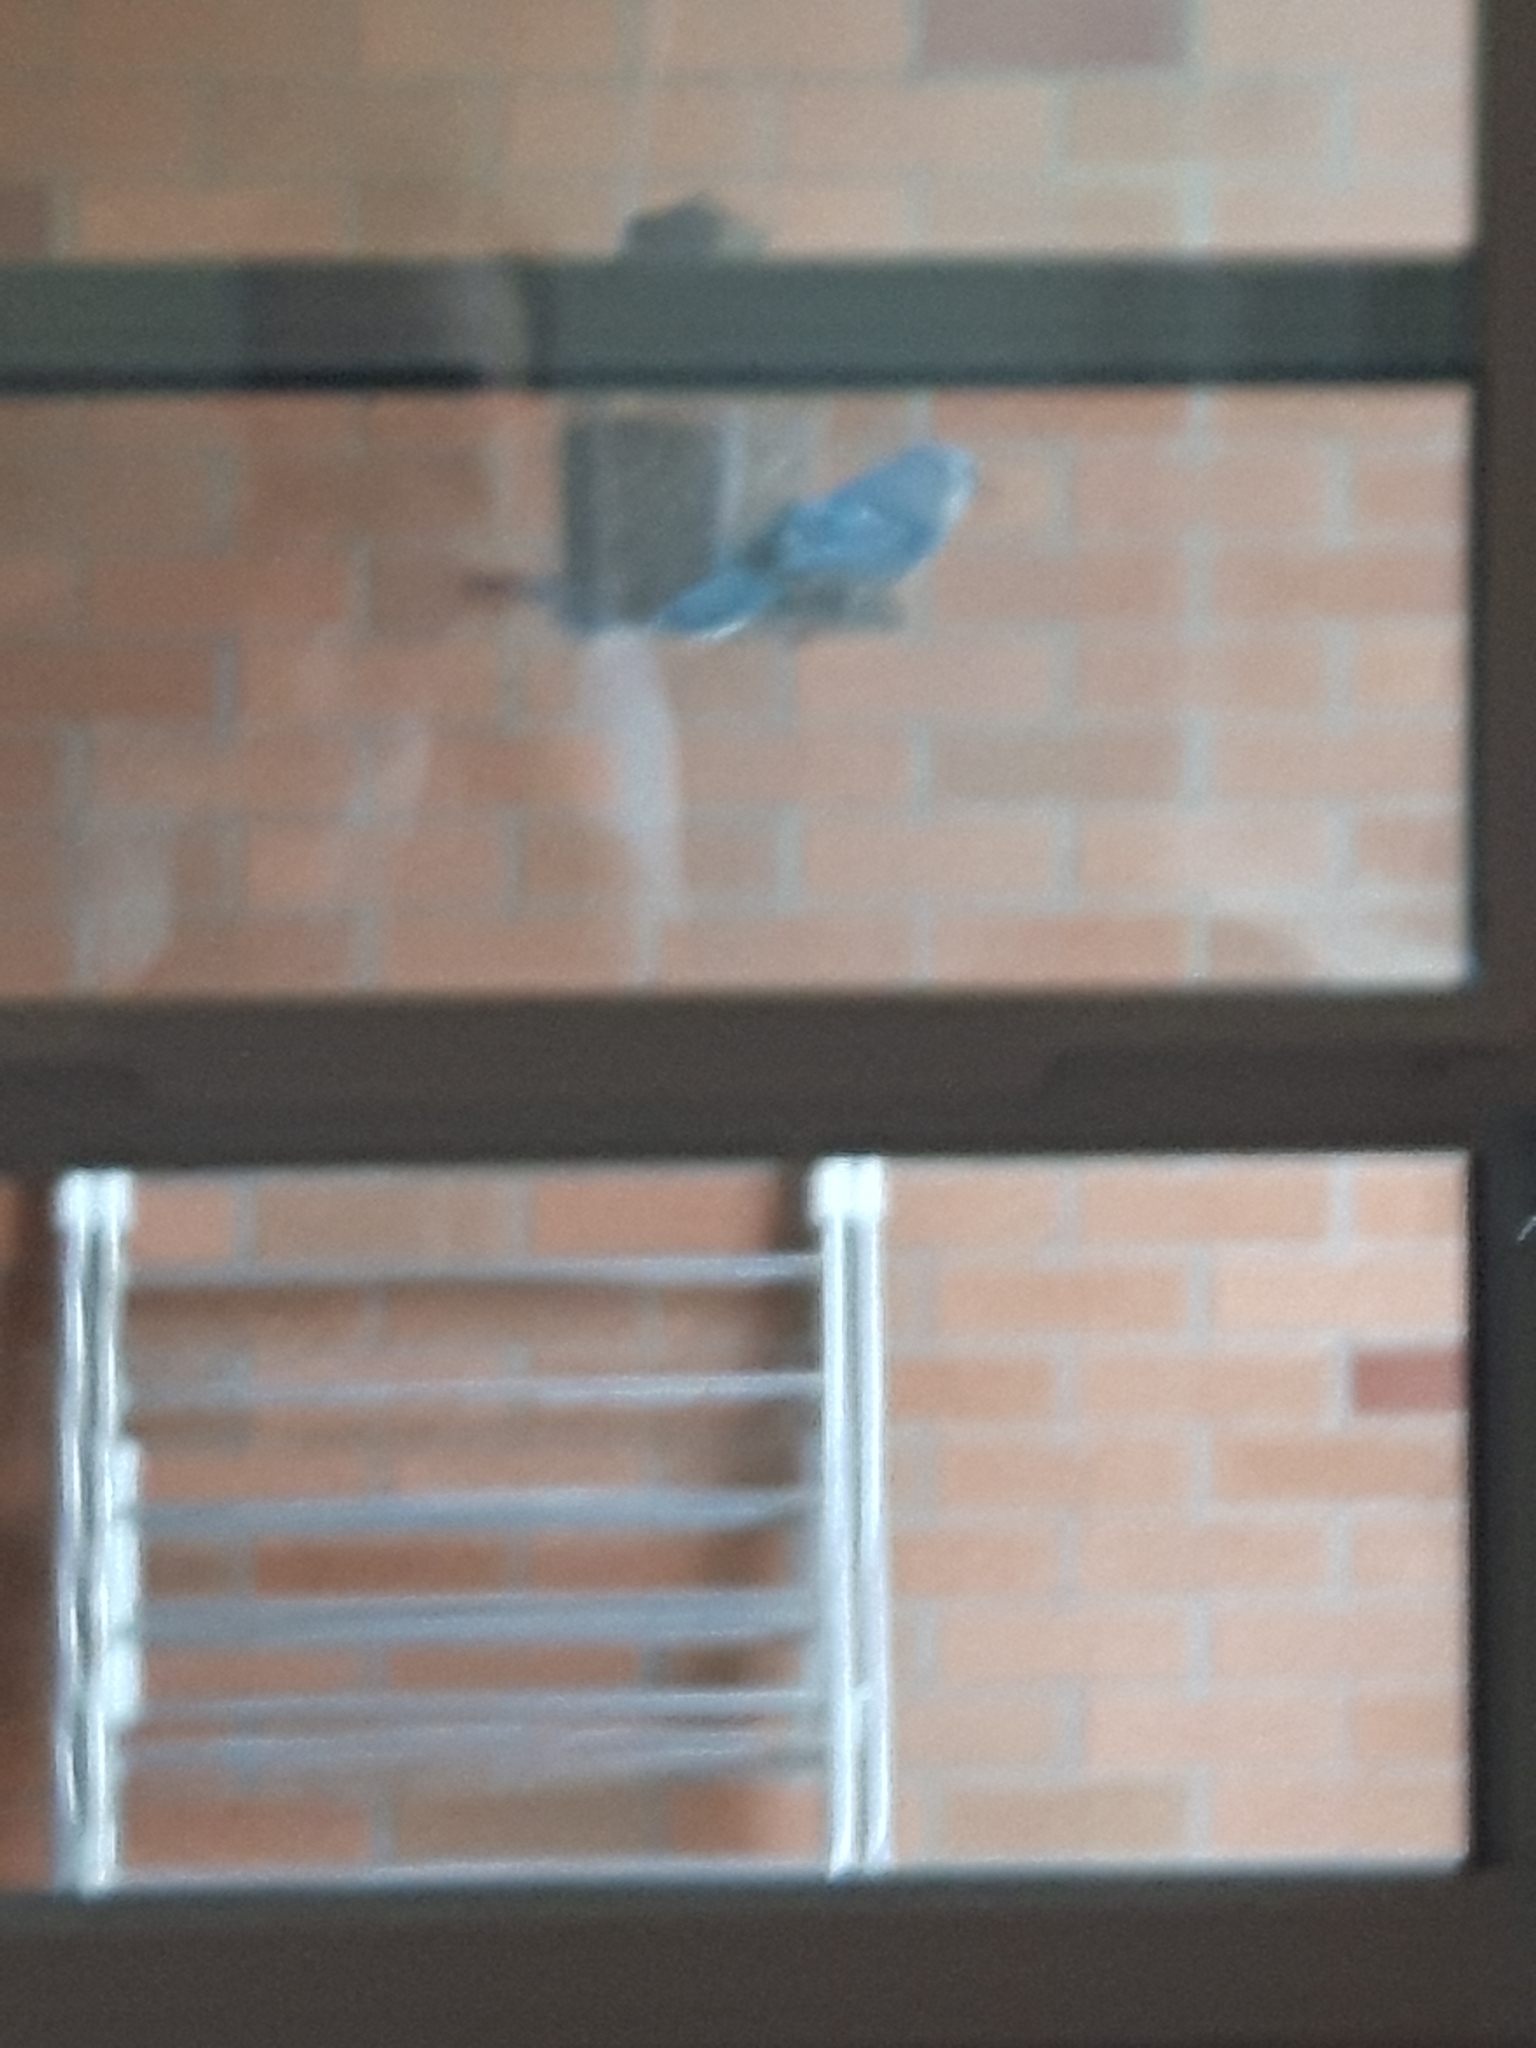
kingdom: Animalia
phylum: Chordata
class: Aves
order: Passeriformes
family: Corvidae
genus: Cyanocitta
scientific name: Cyanocitta cristata
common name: Blue jay
